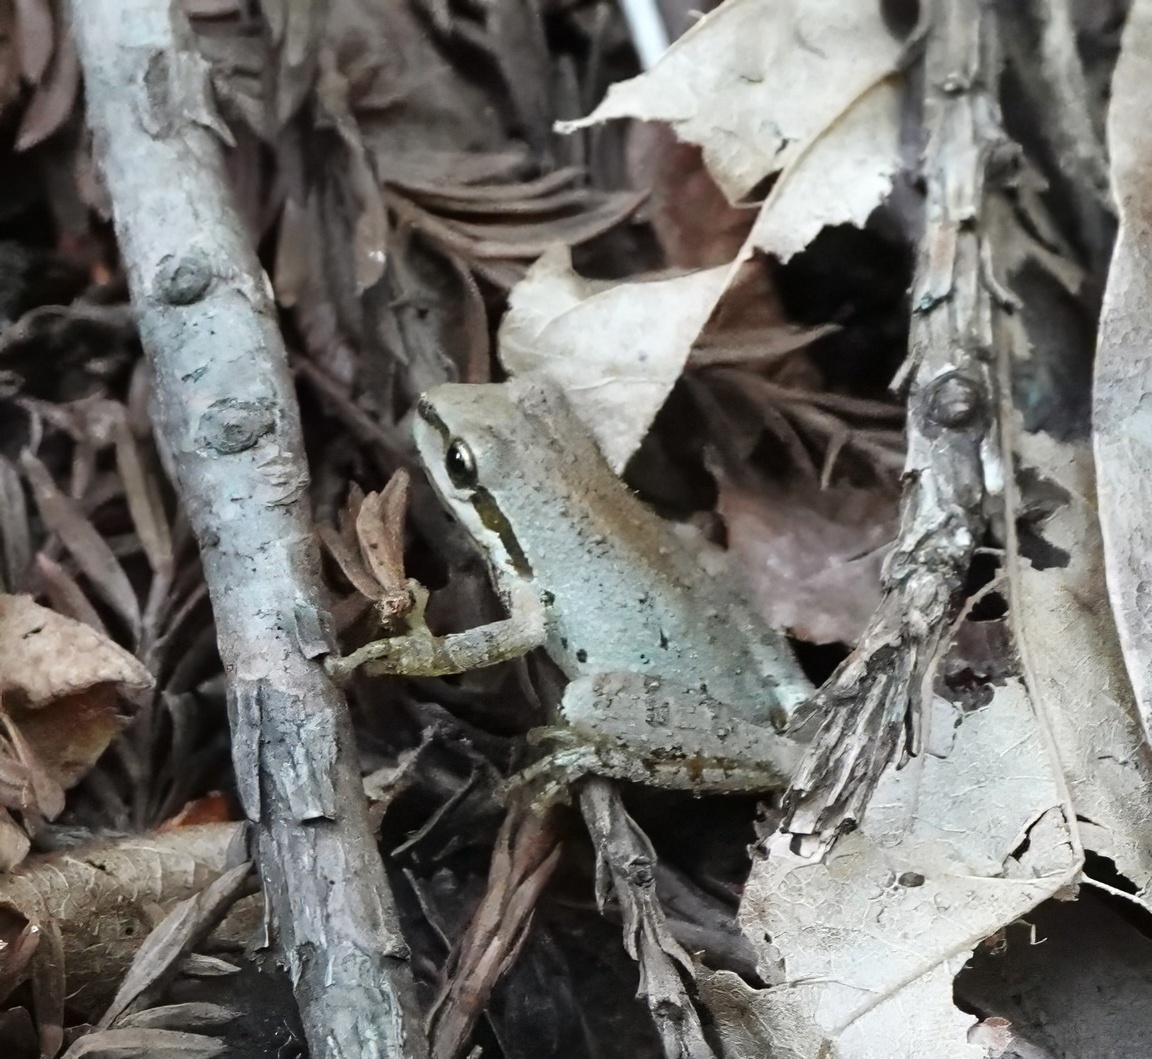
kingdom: Animalia
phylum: Chordata
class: Amphibia
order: Anura
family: Hylidae
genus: Pseudacris
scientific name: Pseudacris regilla
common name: Pacific chorus frog
